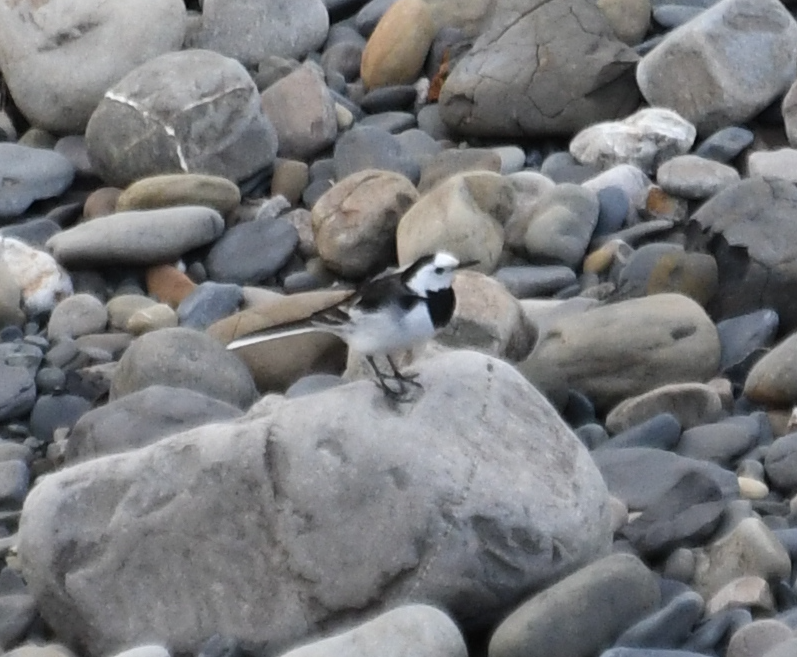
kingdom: Animalia
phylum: Chordata
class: Aves
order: Passeriformes
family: Motacillidae
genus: Motacilla
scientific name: Motacilla alba
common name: White wagtail
